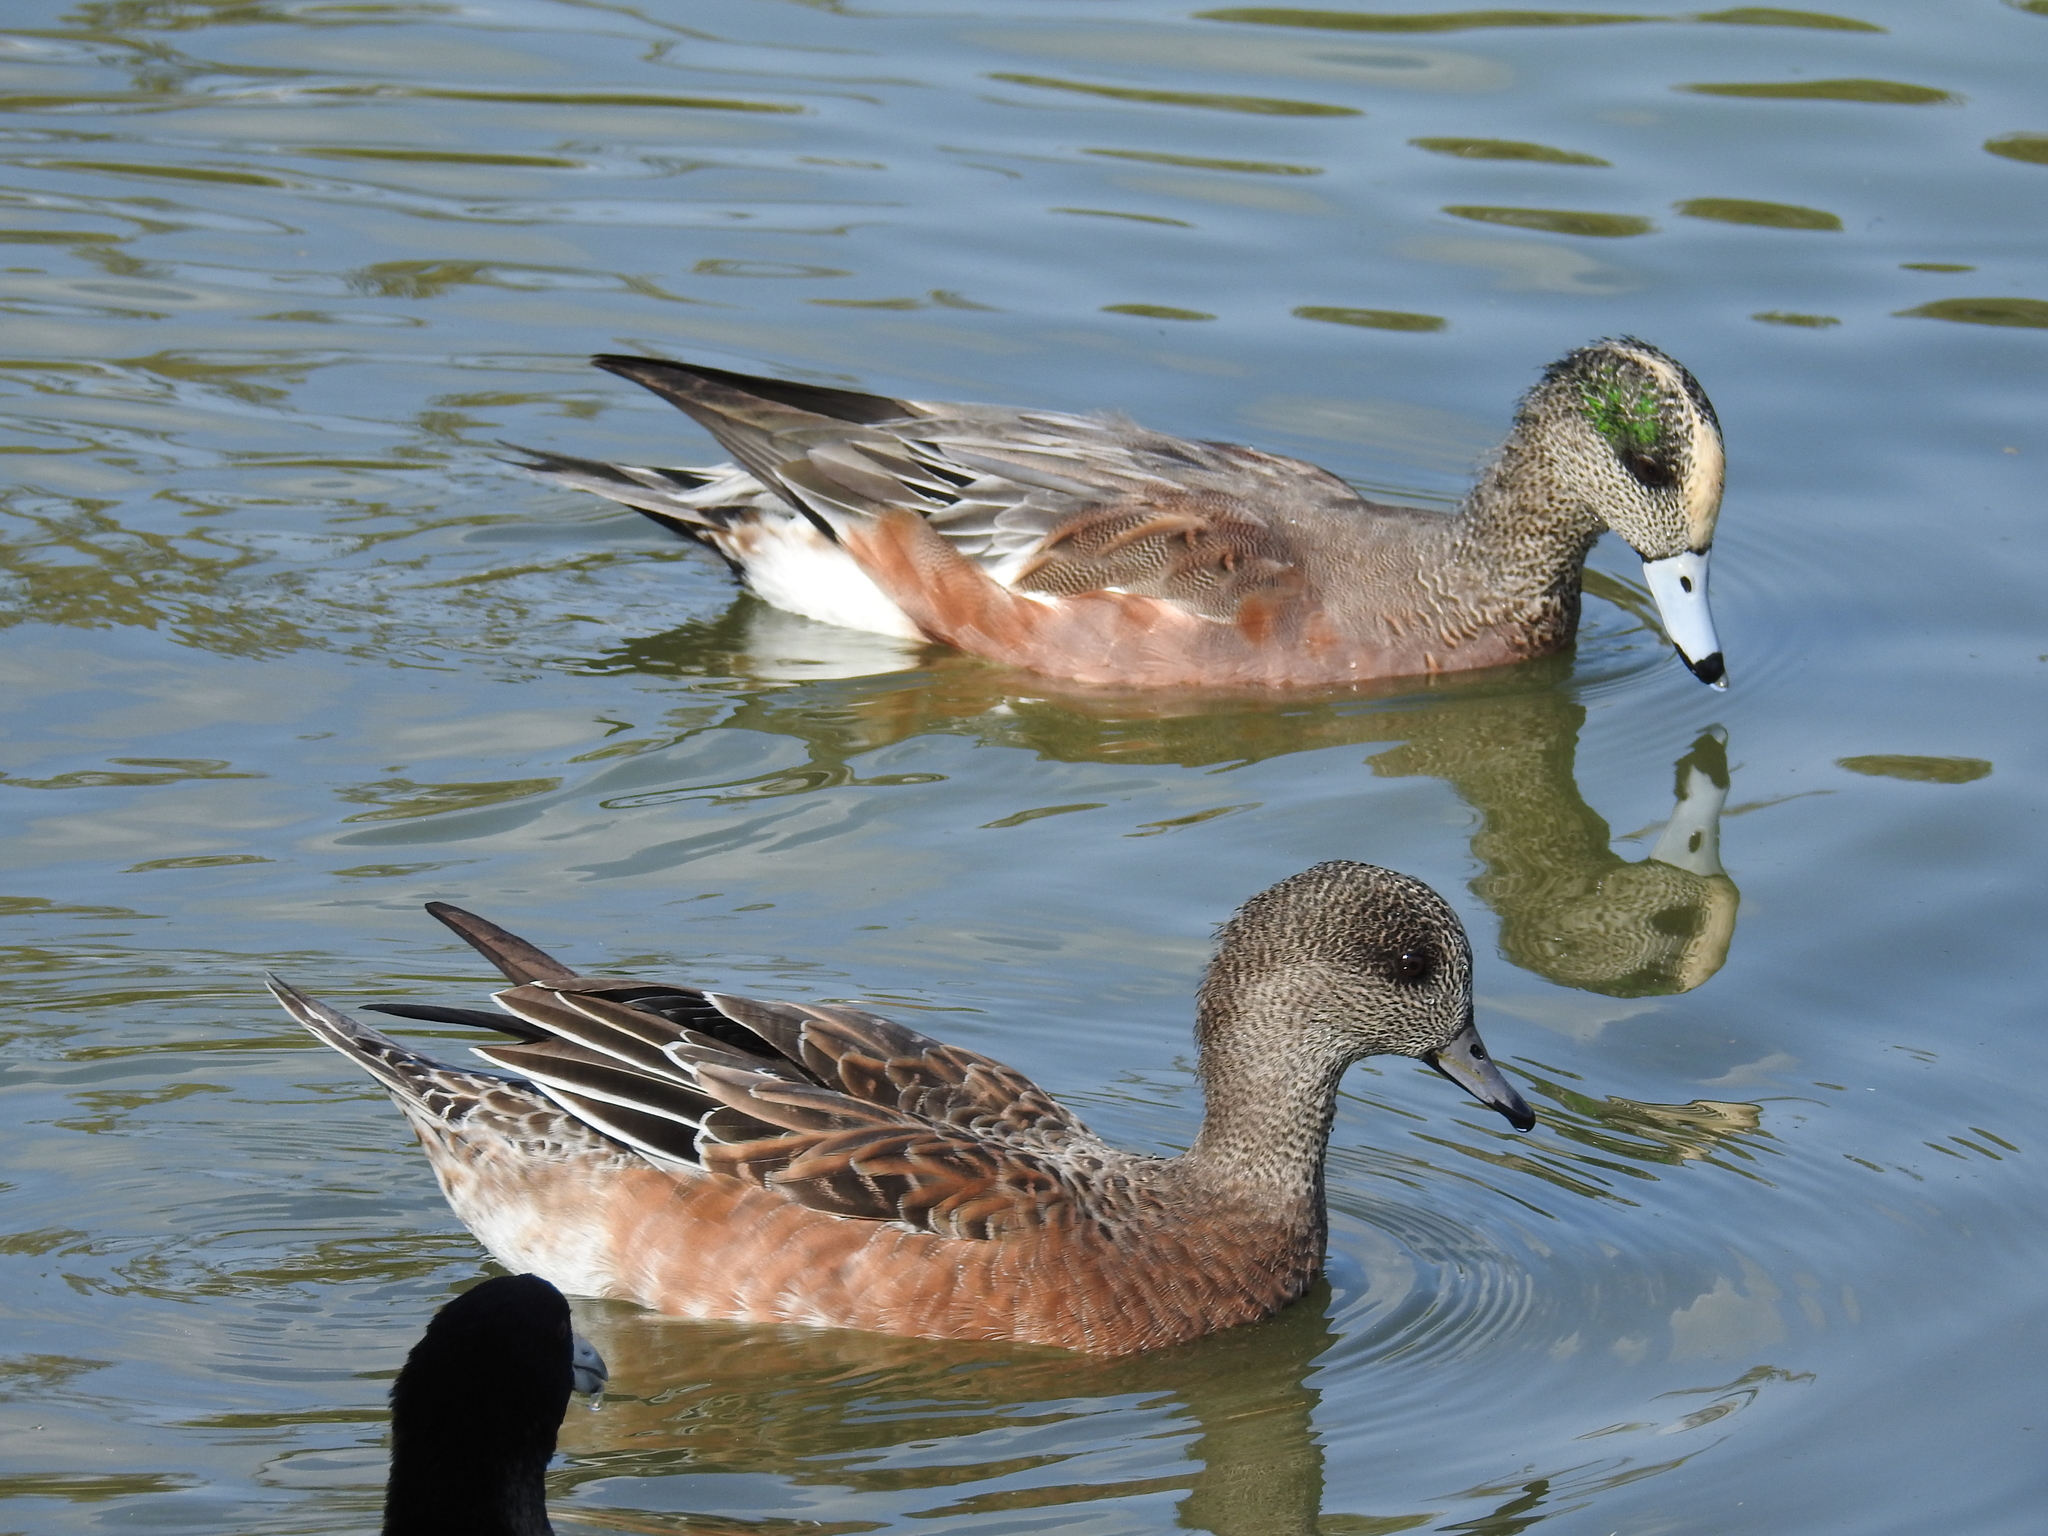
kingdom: Animalia
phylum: Chordata
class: Aves
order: Anseriformes
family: Anatidae
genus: Mareca
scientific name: Mareca americana
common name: American wigeon
